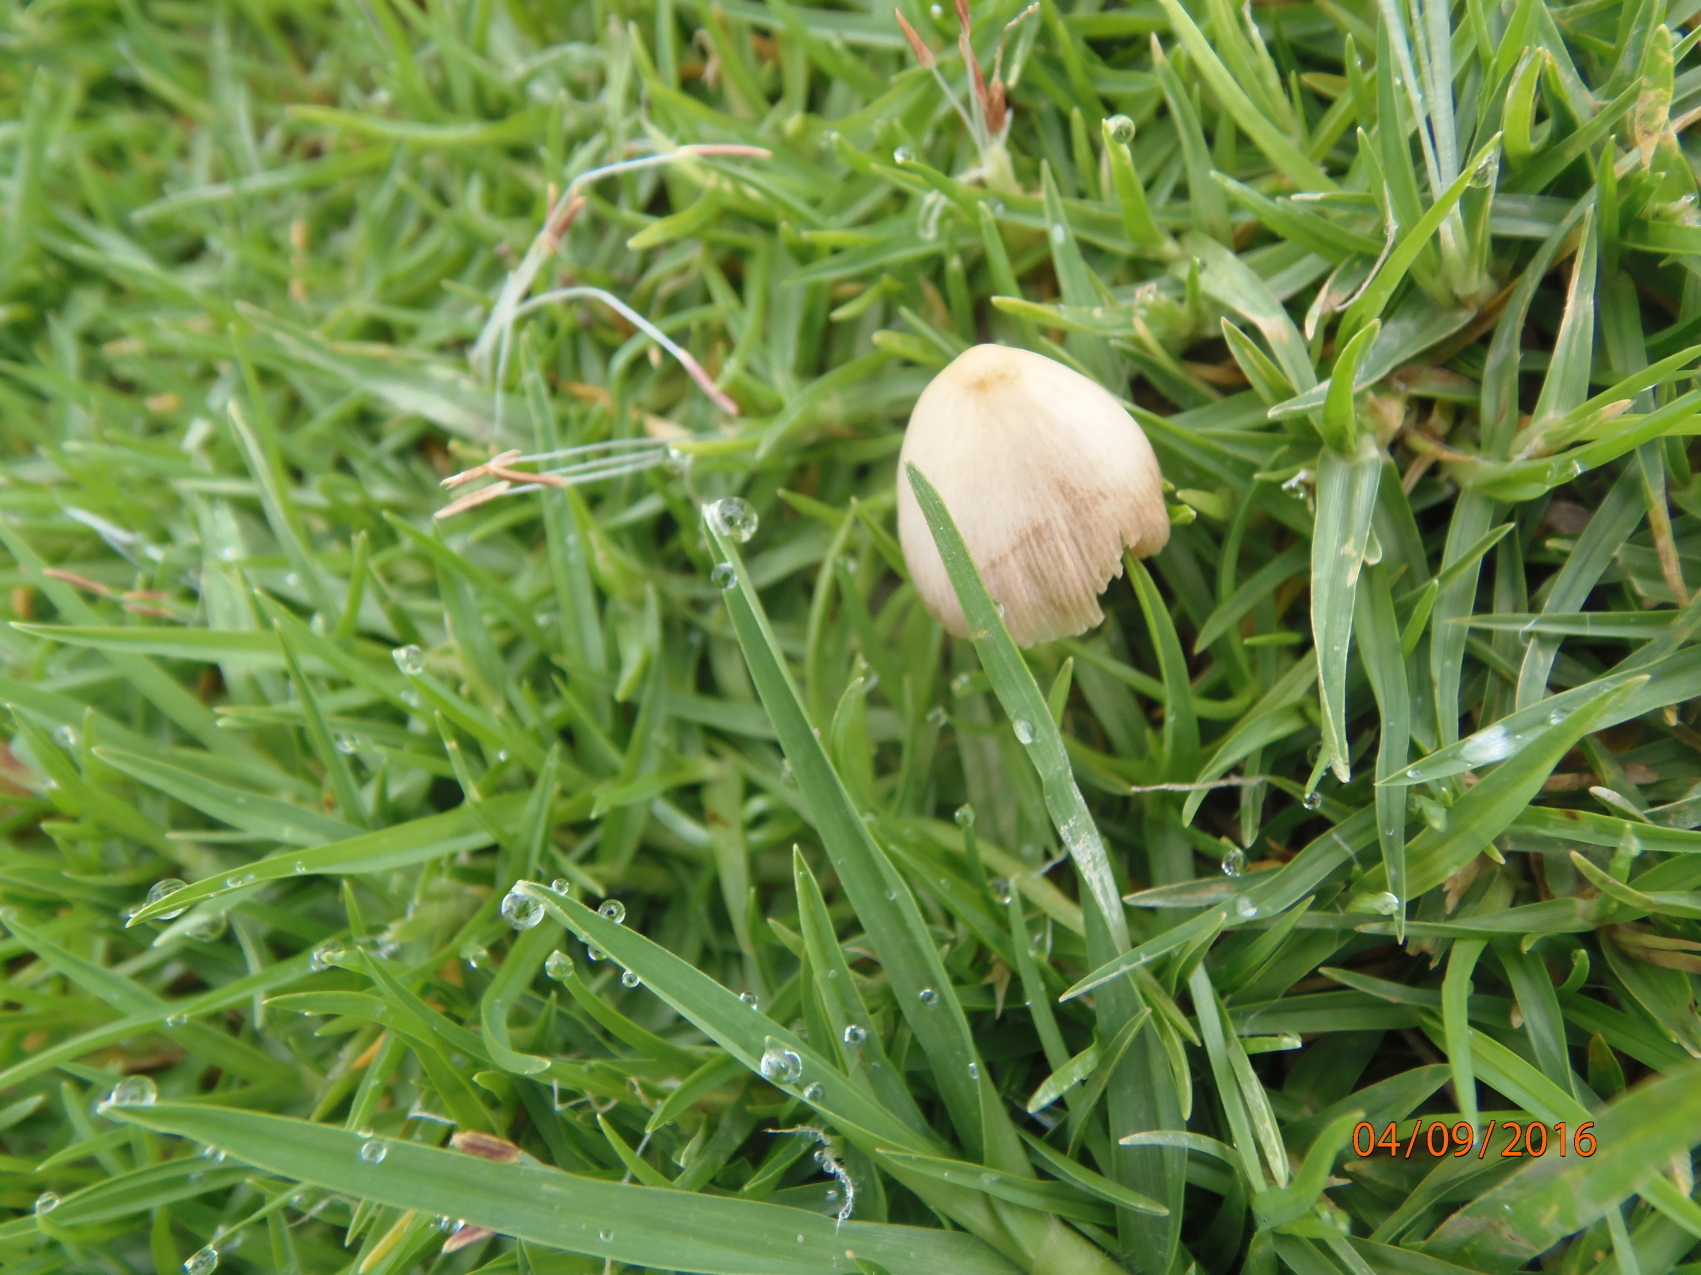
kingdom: Fungi
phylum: Basidiomycota
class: Agaricomycetes
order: Agaricales
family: Bolbitiaceae
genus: Bolbitius
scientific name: Bolbitius titubans
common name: Yellow fieldcap
